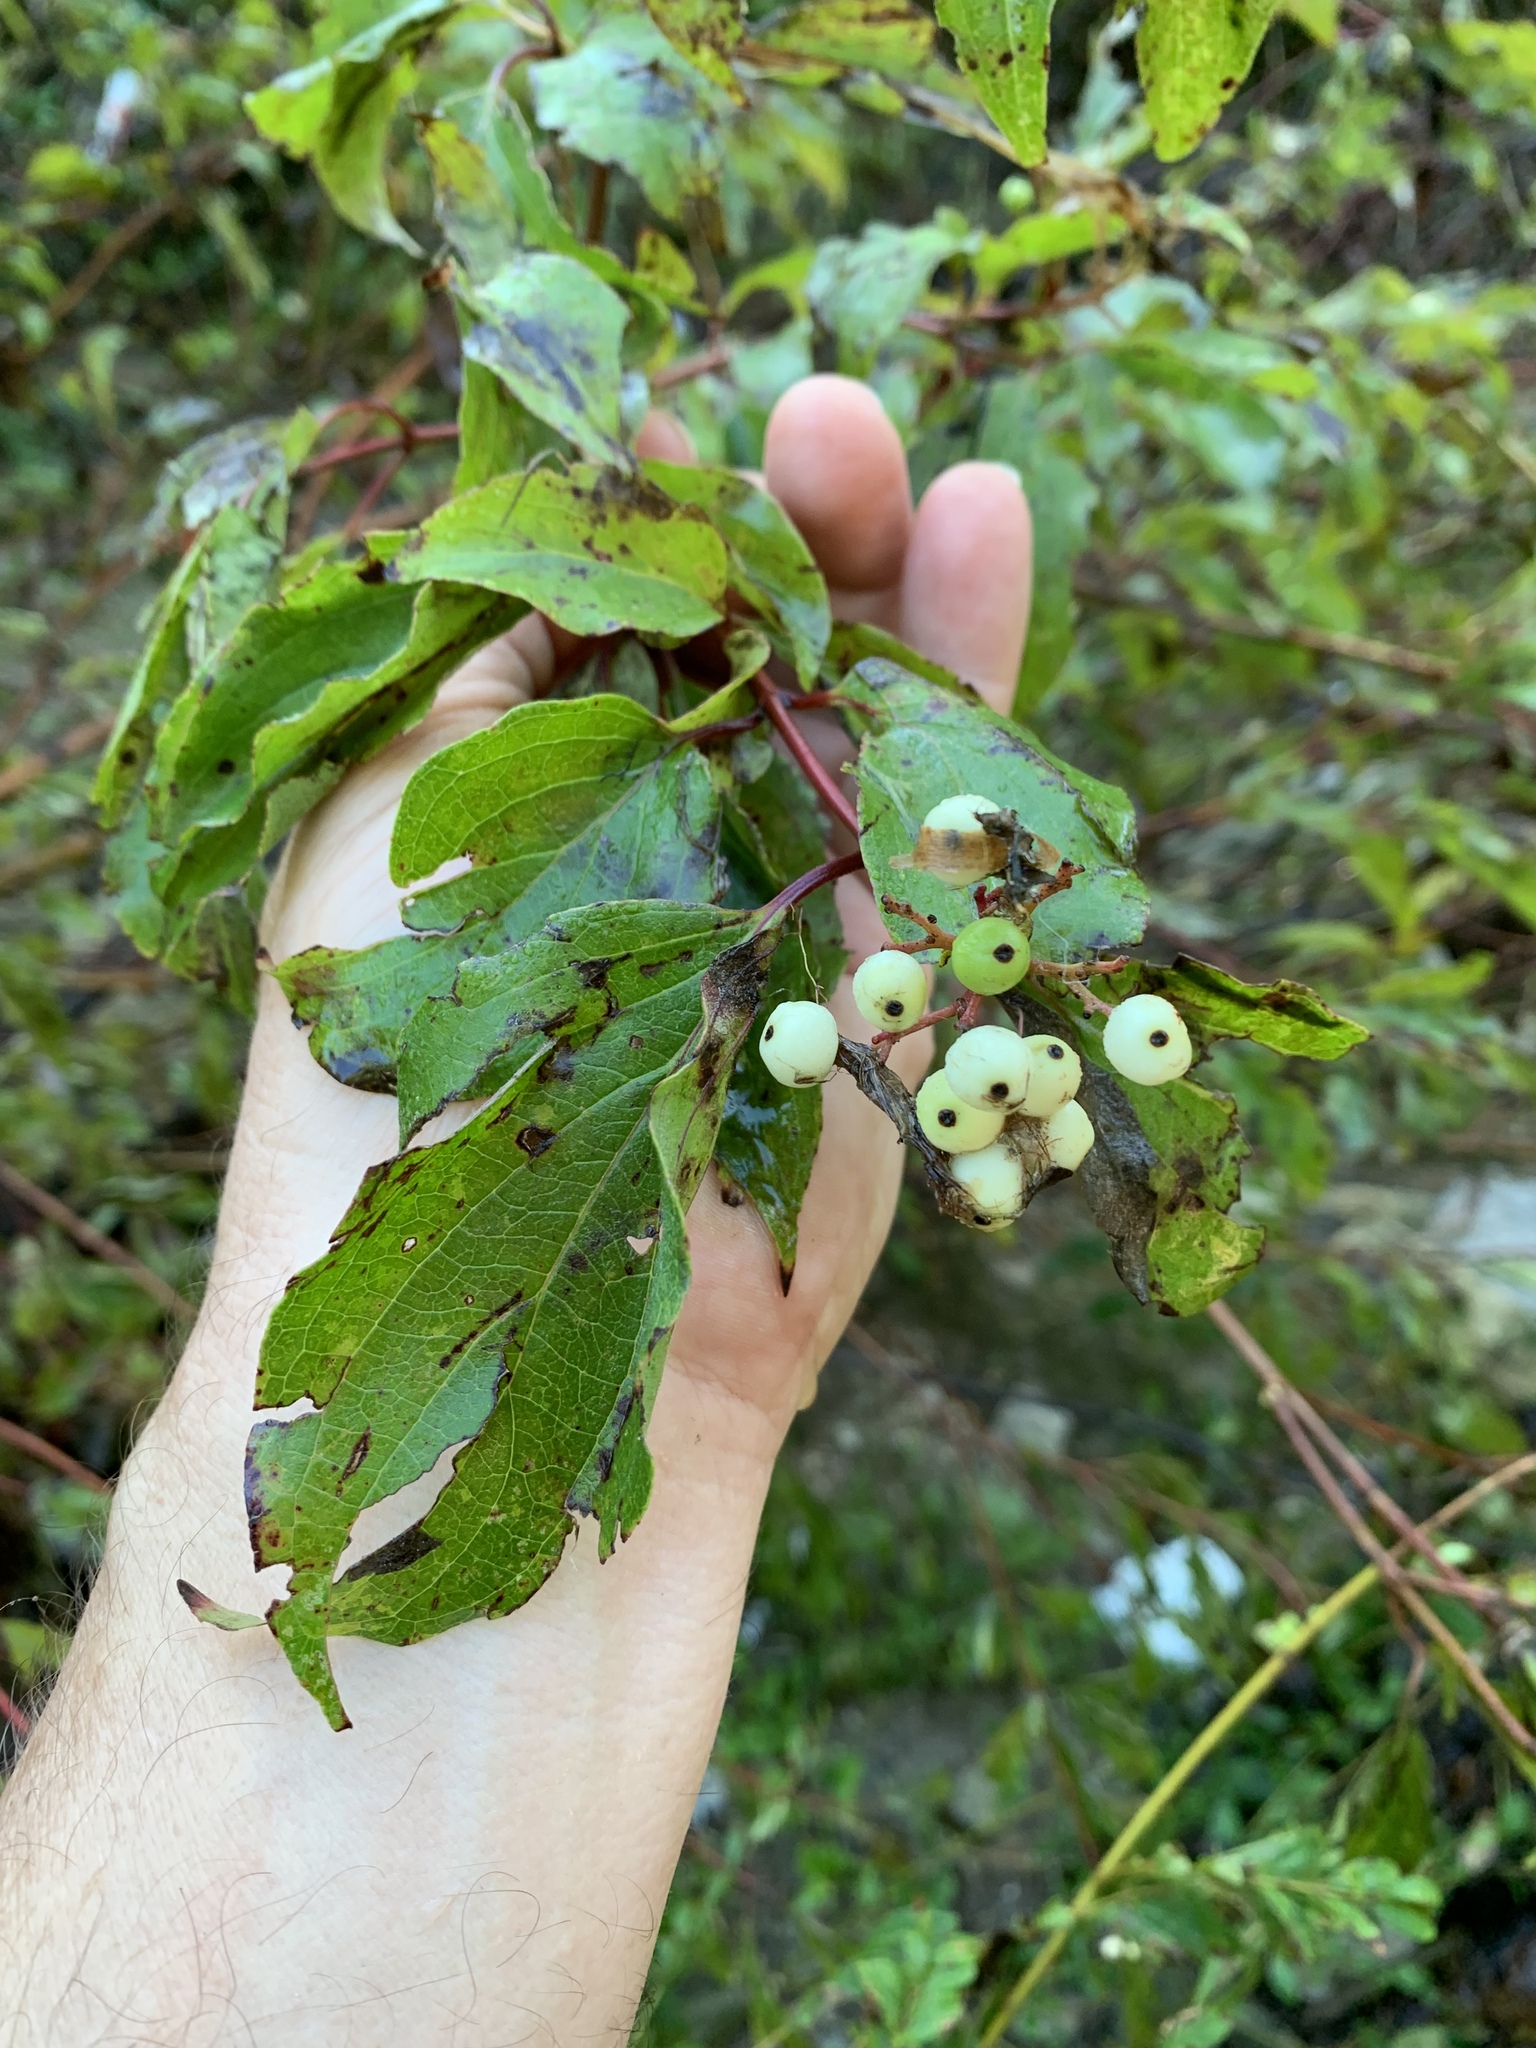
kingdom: Plantae
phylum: Tracheophyta
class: Magnoliopsida
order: Cornales
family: Cornaceae
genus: Cornus
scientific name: Cornus drummondii
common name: Rough-leaf dogwood
